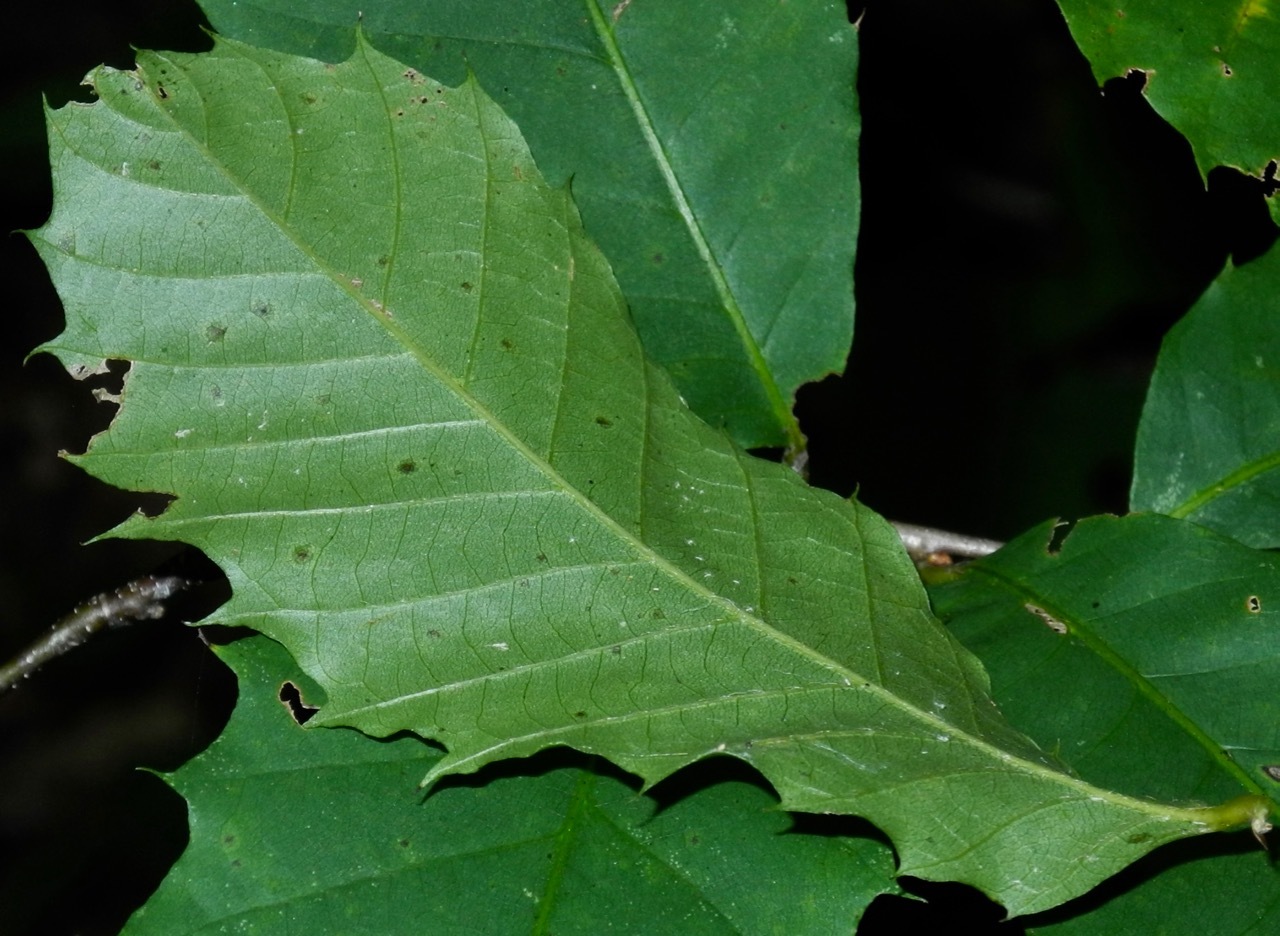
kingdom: Plantae
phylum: Tracheophyta
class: Magnoliopsida
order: Fagales
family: Fagaceae
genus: Castanea
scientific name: Castanea dentata
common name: American chestnut
